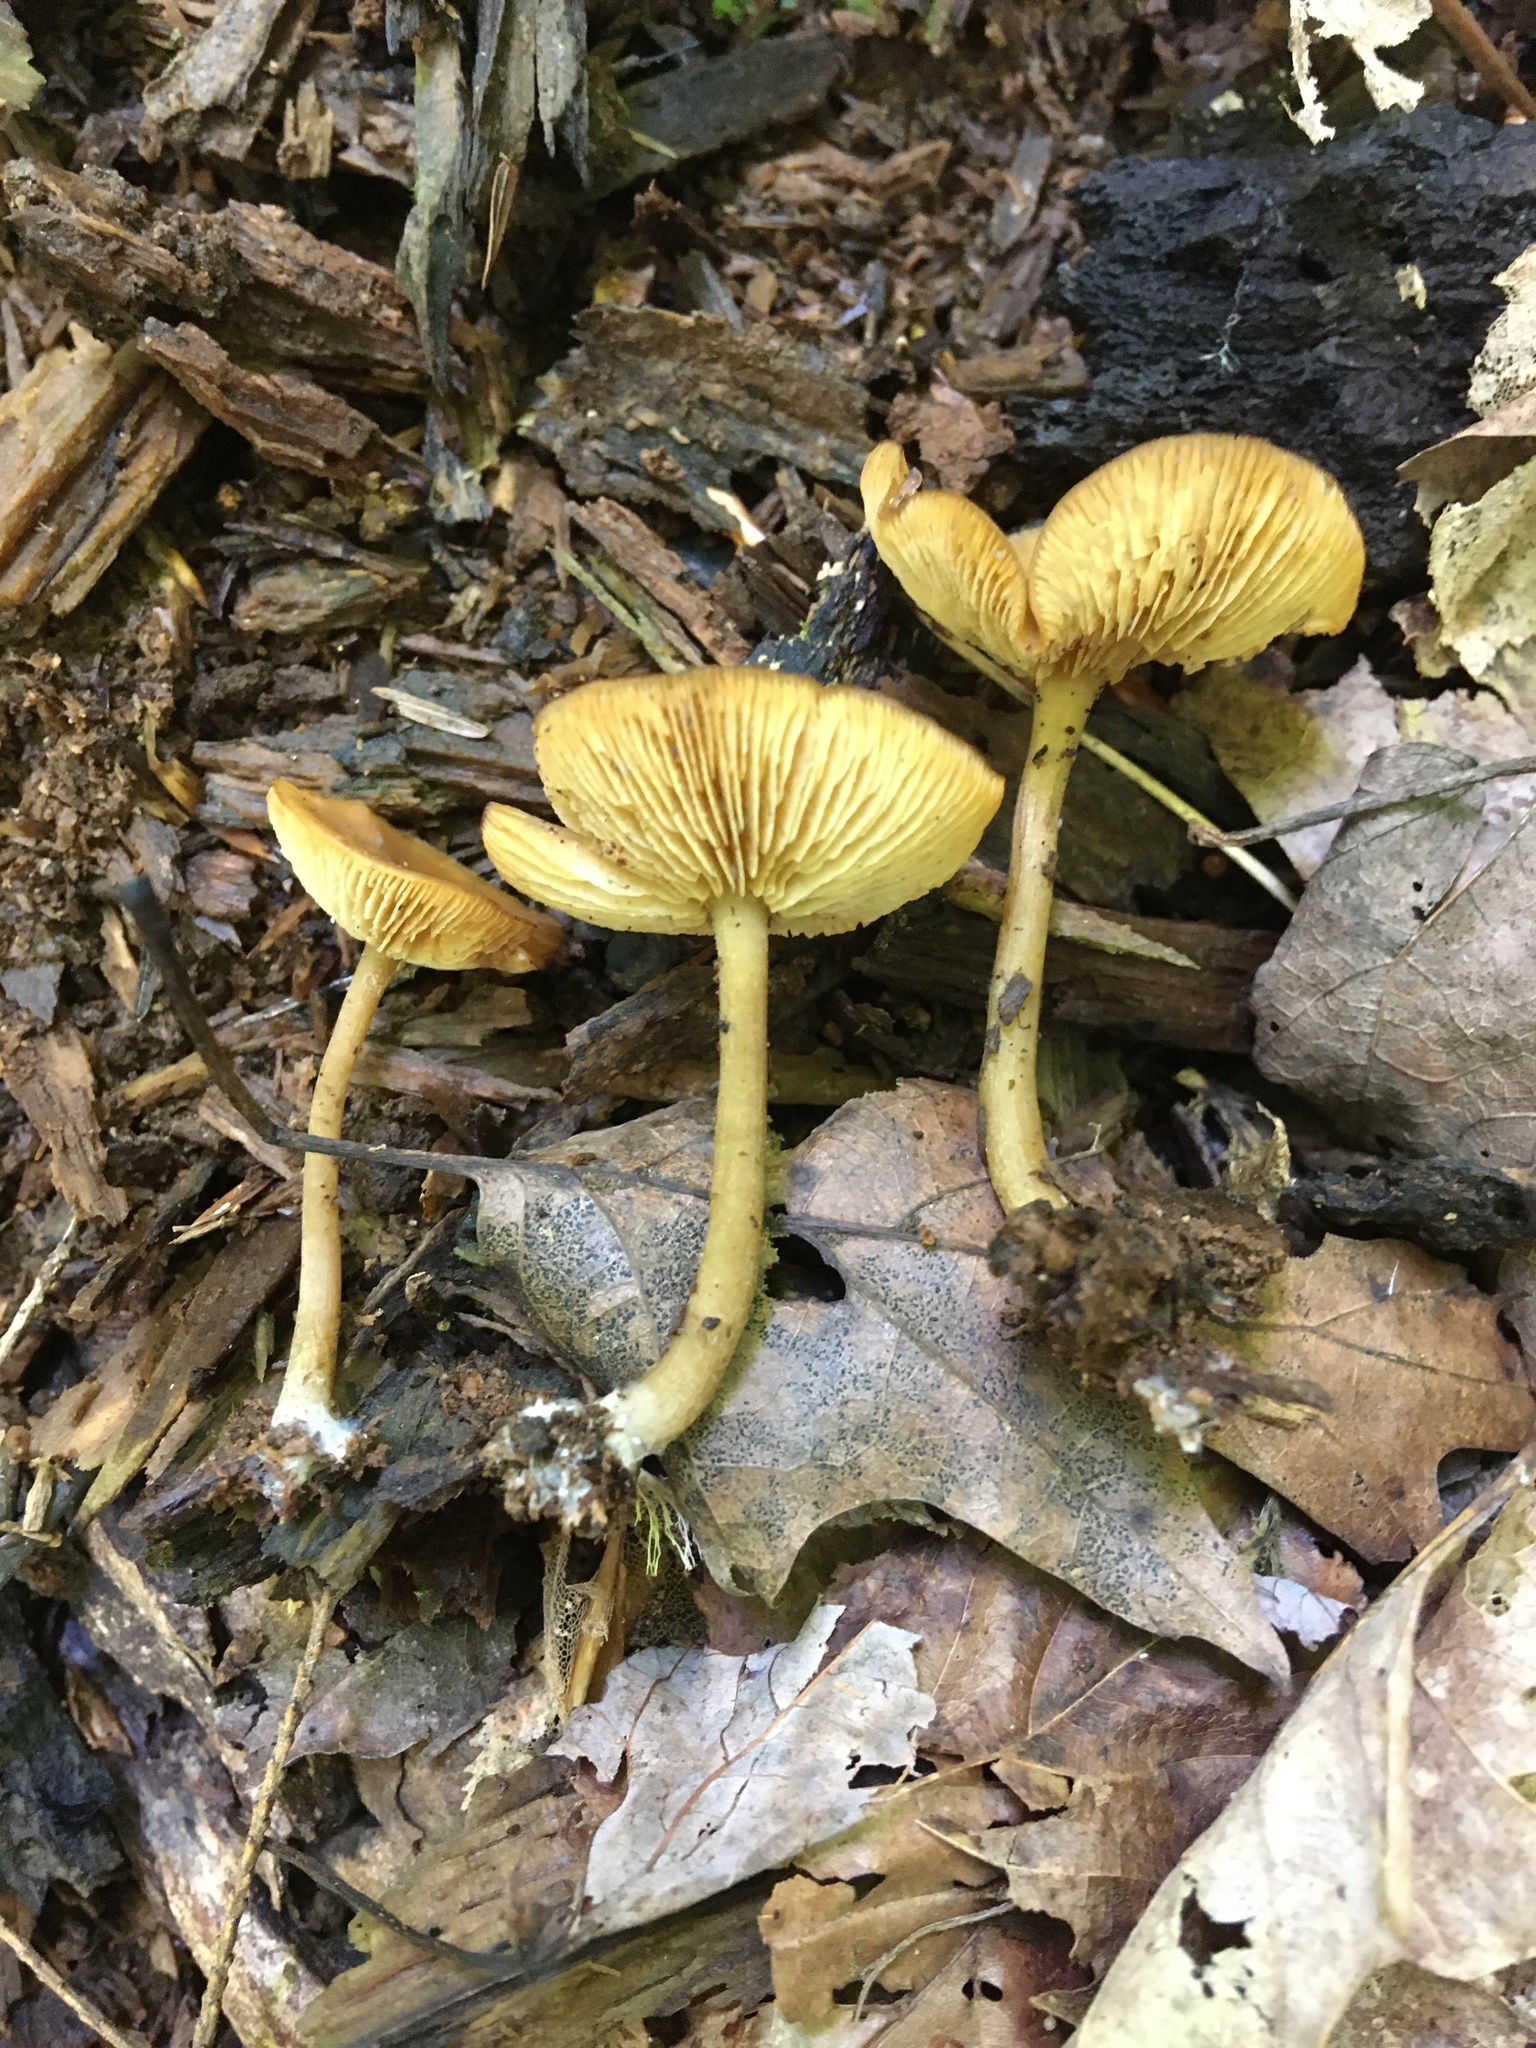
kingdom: Fungi
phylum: Basidiomycota
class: Agaricomycetes
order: Agaricales
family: Callistosporiaceae
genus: Callistosporium
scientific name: Callistosporium luteo-olivaceum
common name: Olive lute
